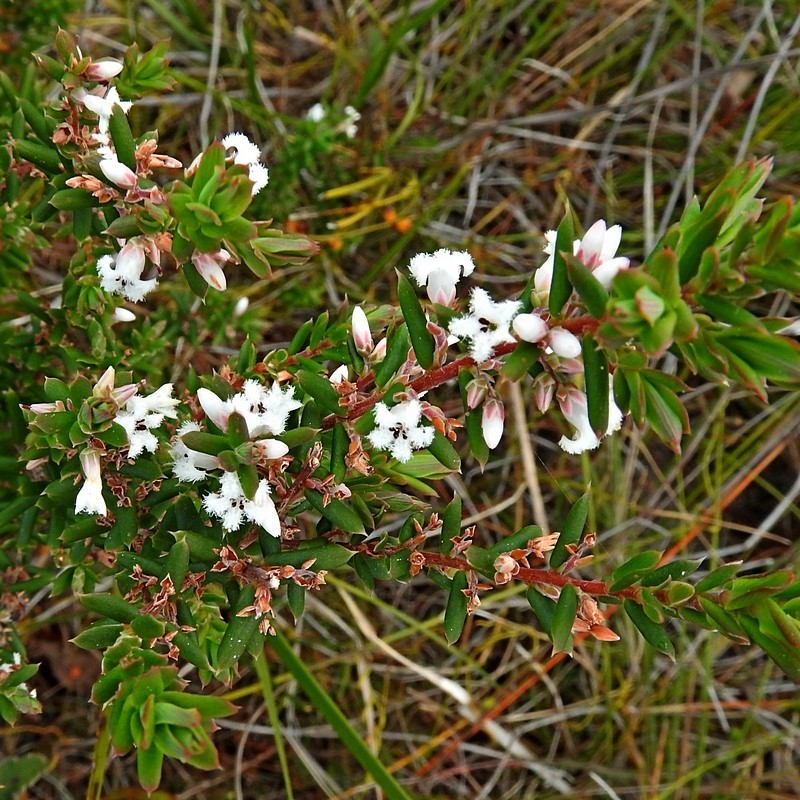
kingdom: Plantae
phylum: Tracheophyta
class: Magnoliopsida
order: Ericales
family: Ericaceae
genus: Styphelia
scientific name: Styphelia ericoides
